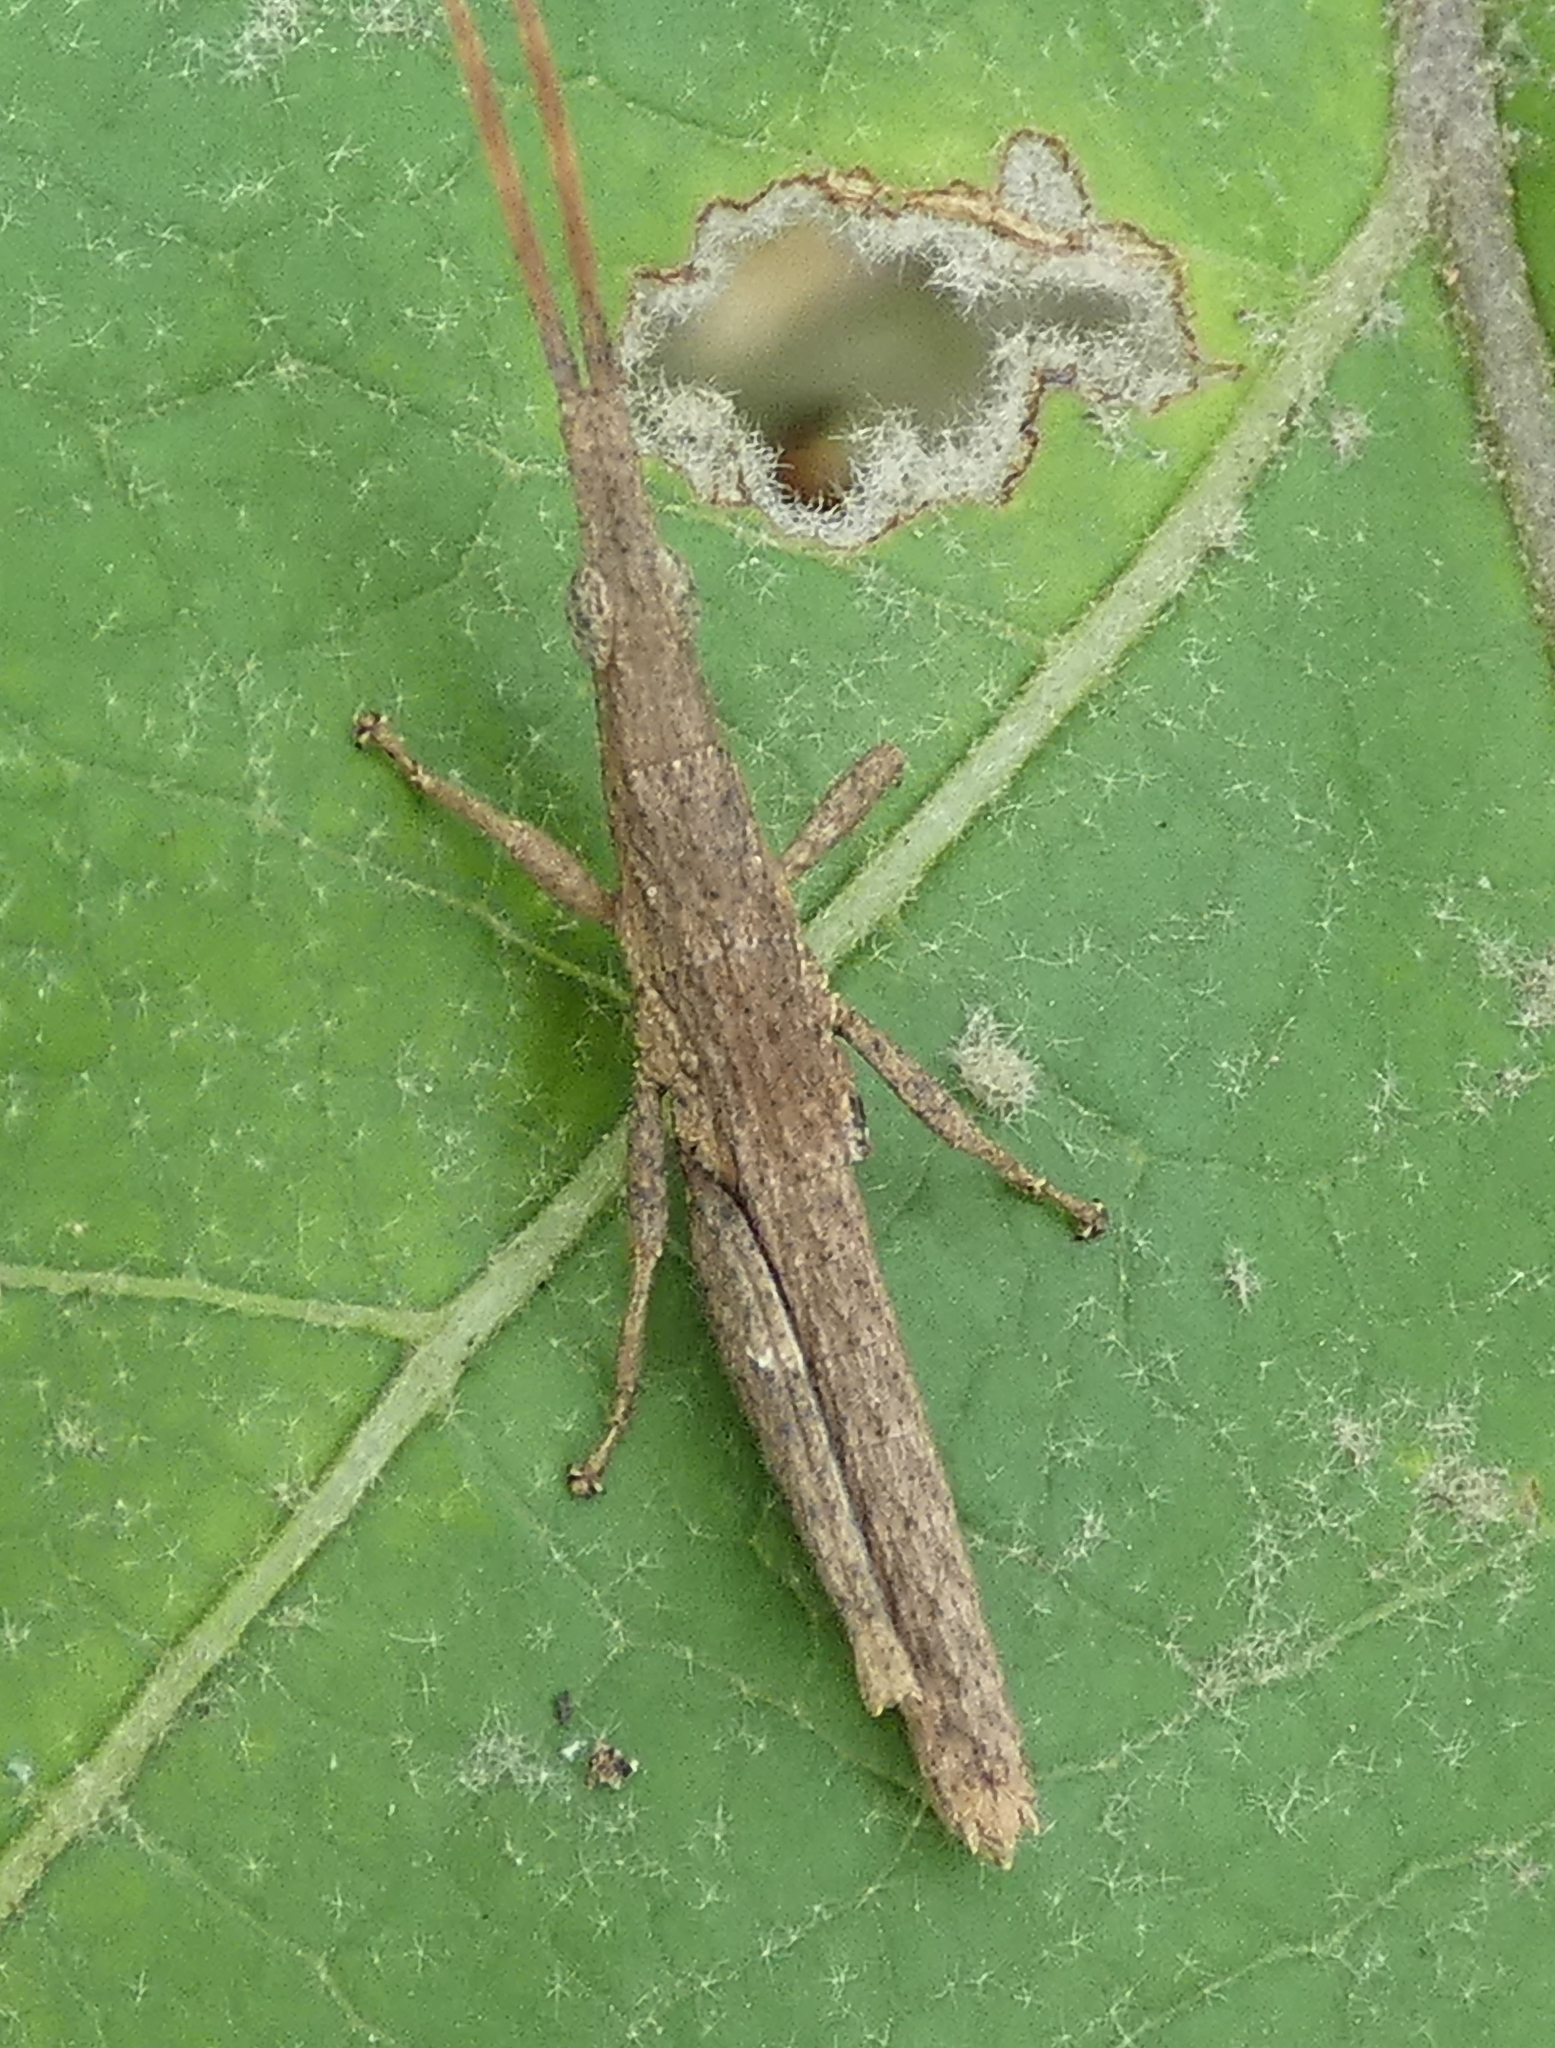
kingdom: Animalia
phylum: Arthropoda
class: Insecta
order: Orthoptera
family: Pyrgomorphidae
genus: Algete
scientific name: Algete brunneri
